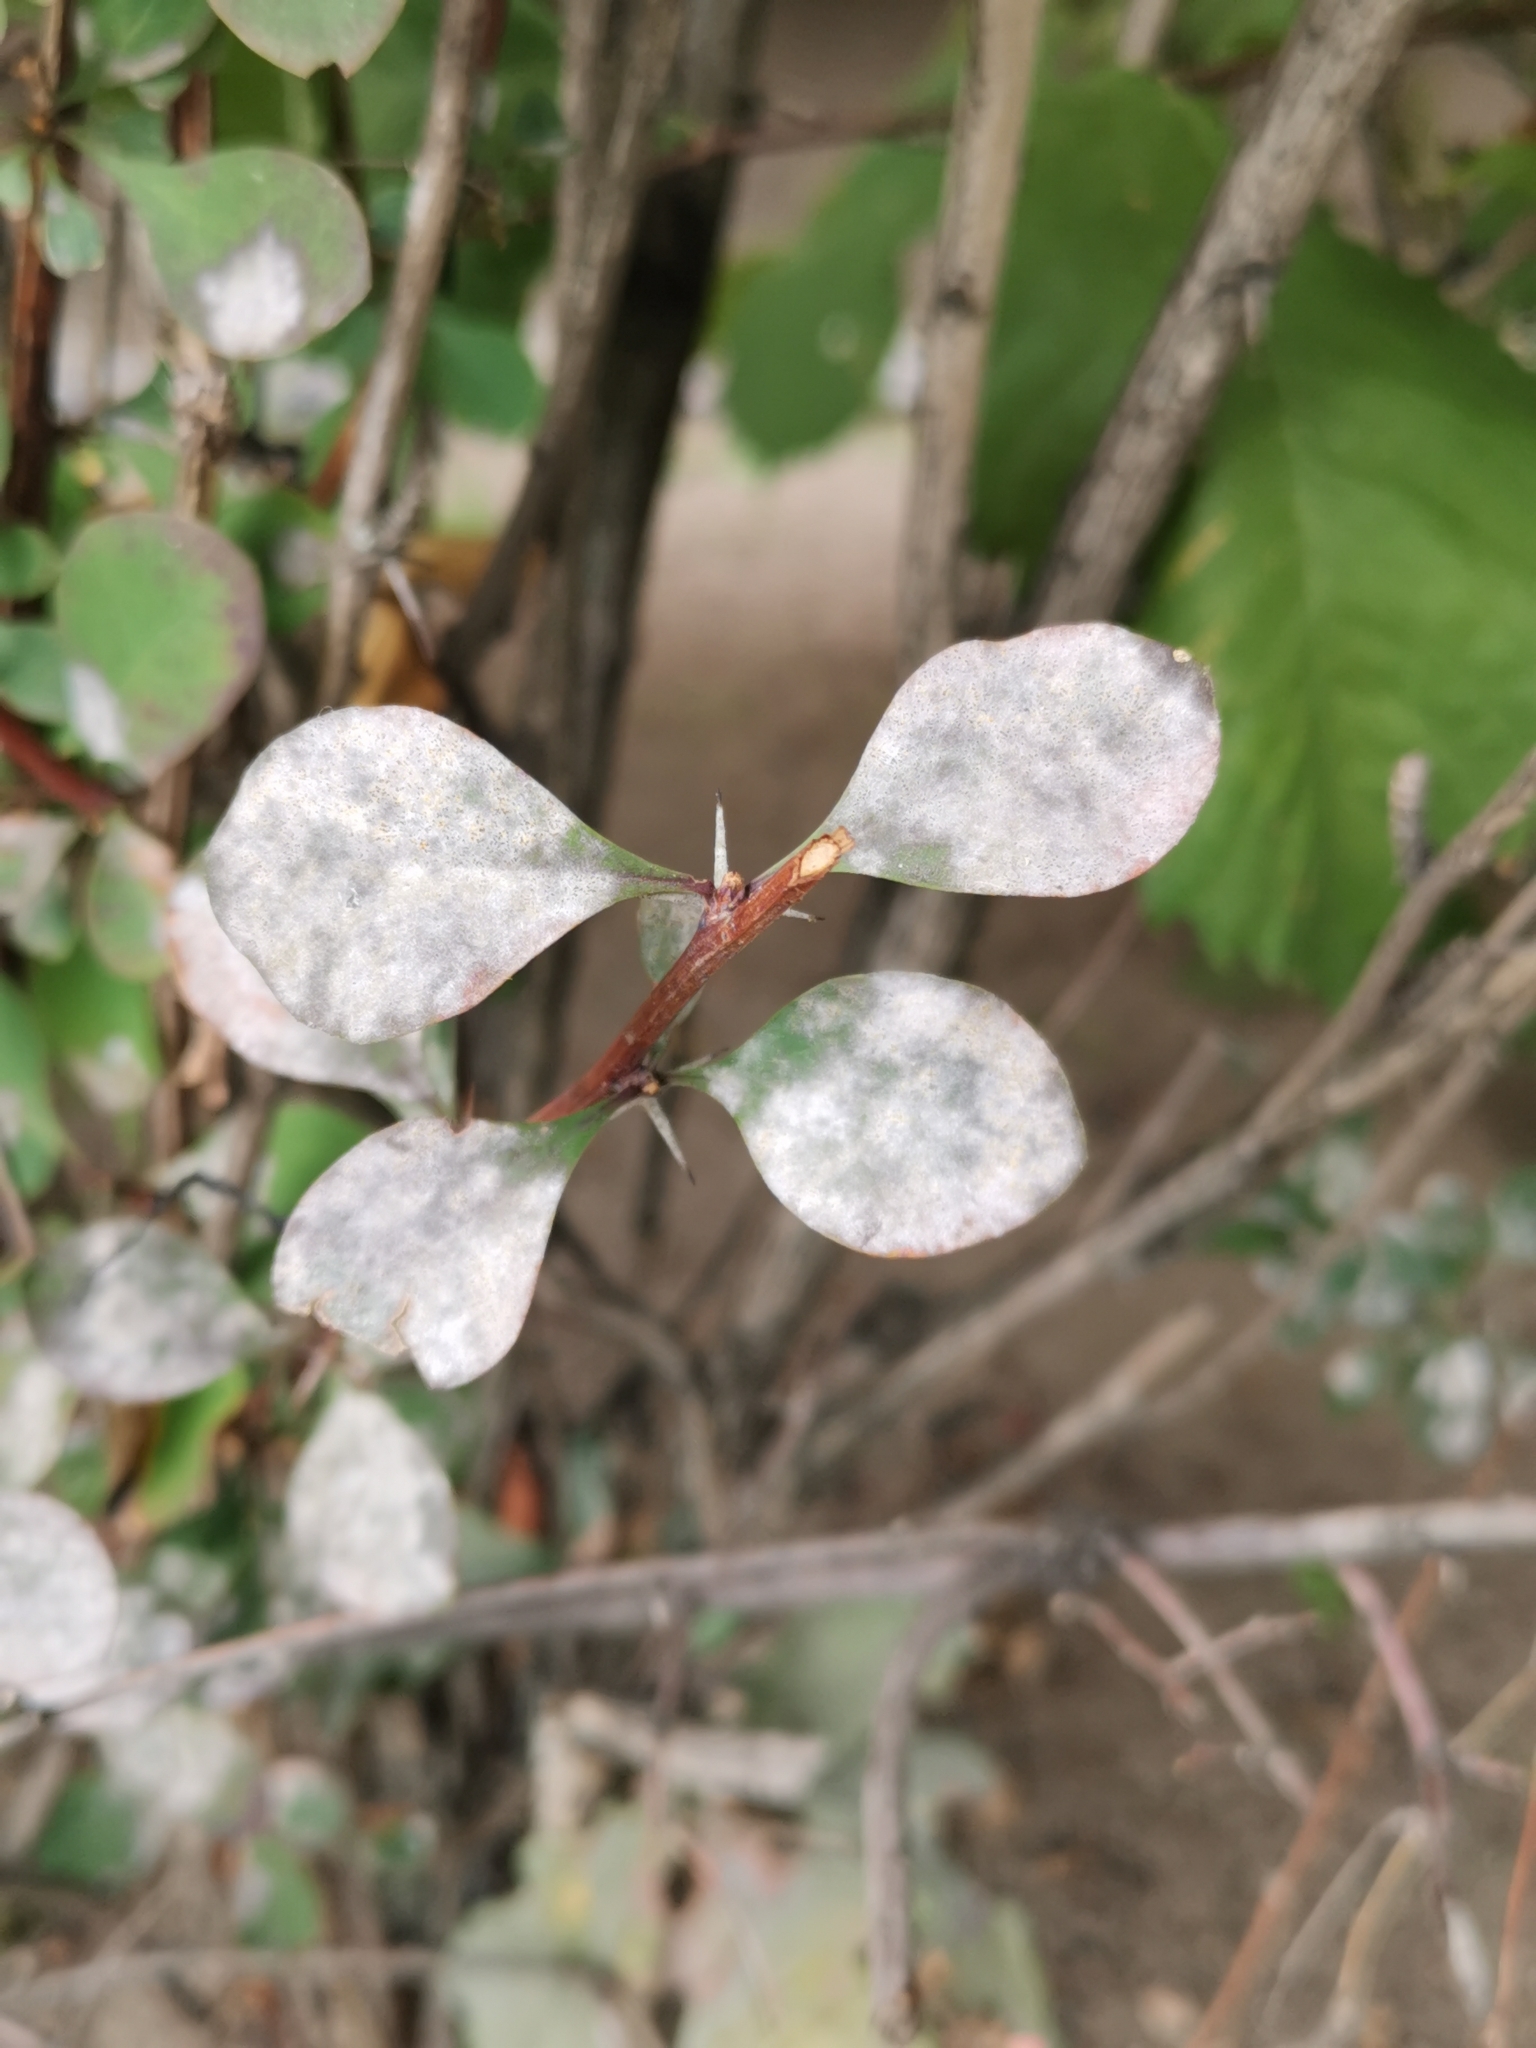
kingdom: Fungi
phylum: Ascomycota
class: Leotiomycetes
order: Helotiales
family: Erysiphaceae
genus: Erysiphe
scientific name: Erysiphe berberidis
